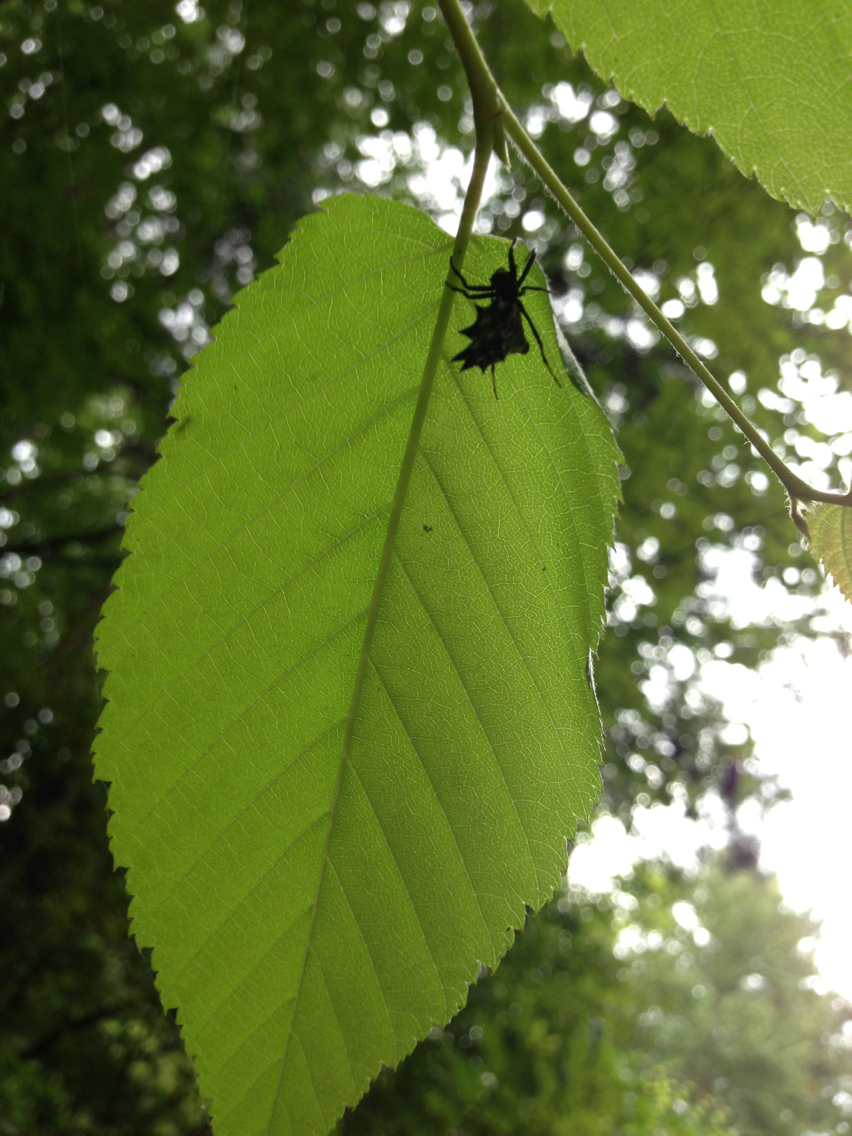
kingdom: Animalia
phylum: Arthropoda
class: Arachnida
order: Araneae
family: Araneidae
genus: Micrathena
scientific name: Micrathena gracilis
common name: Orb weavers
